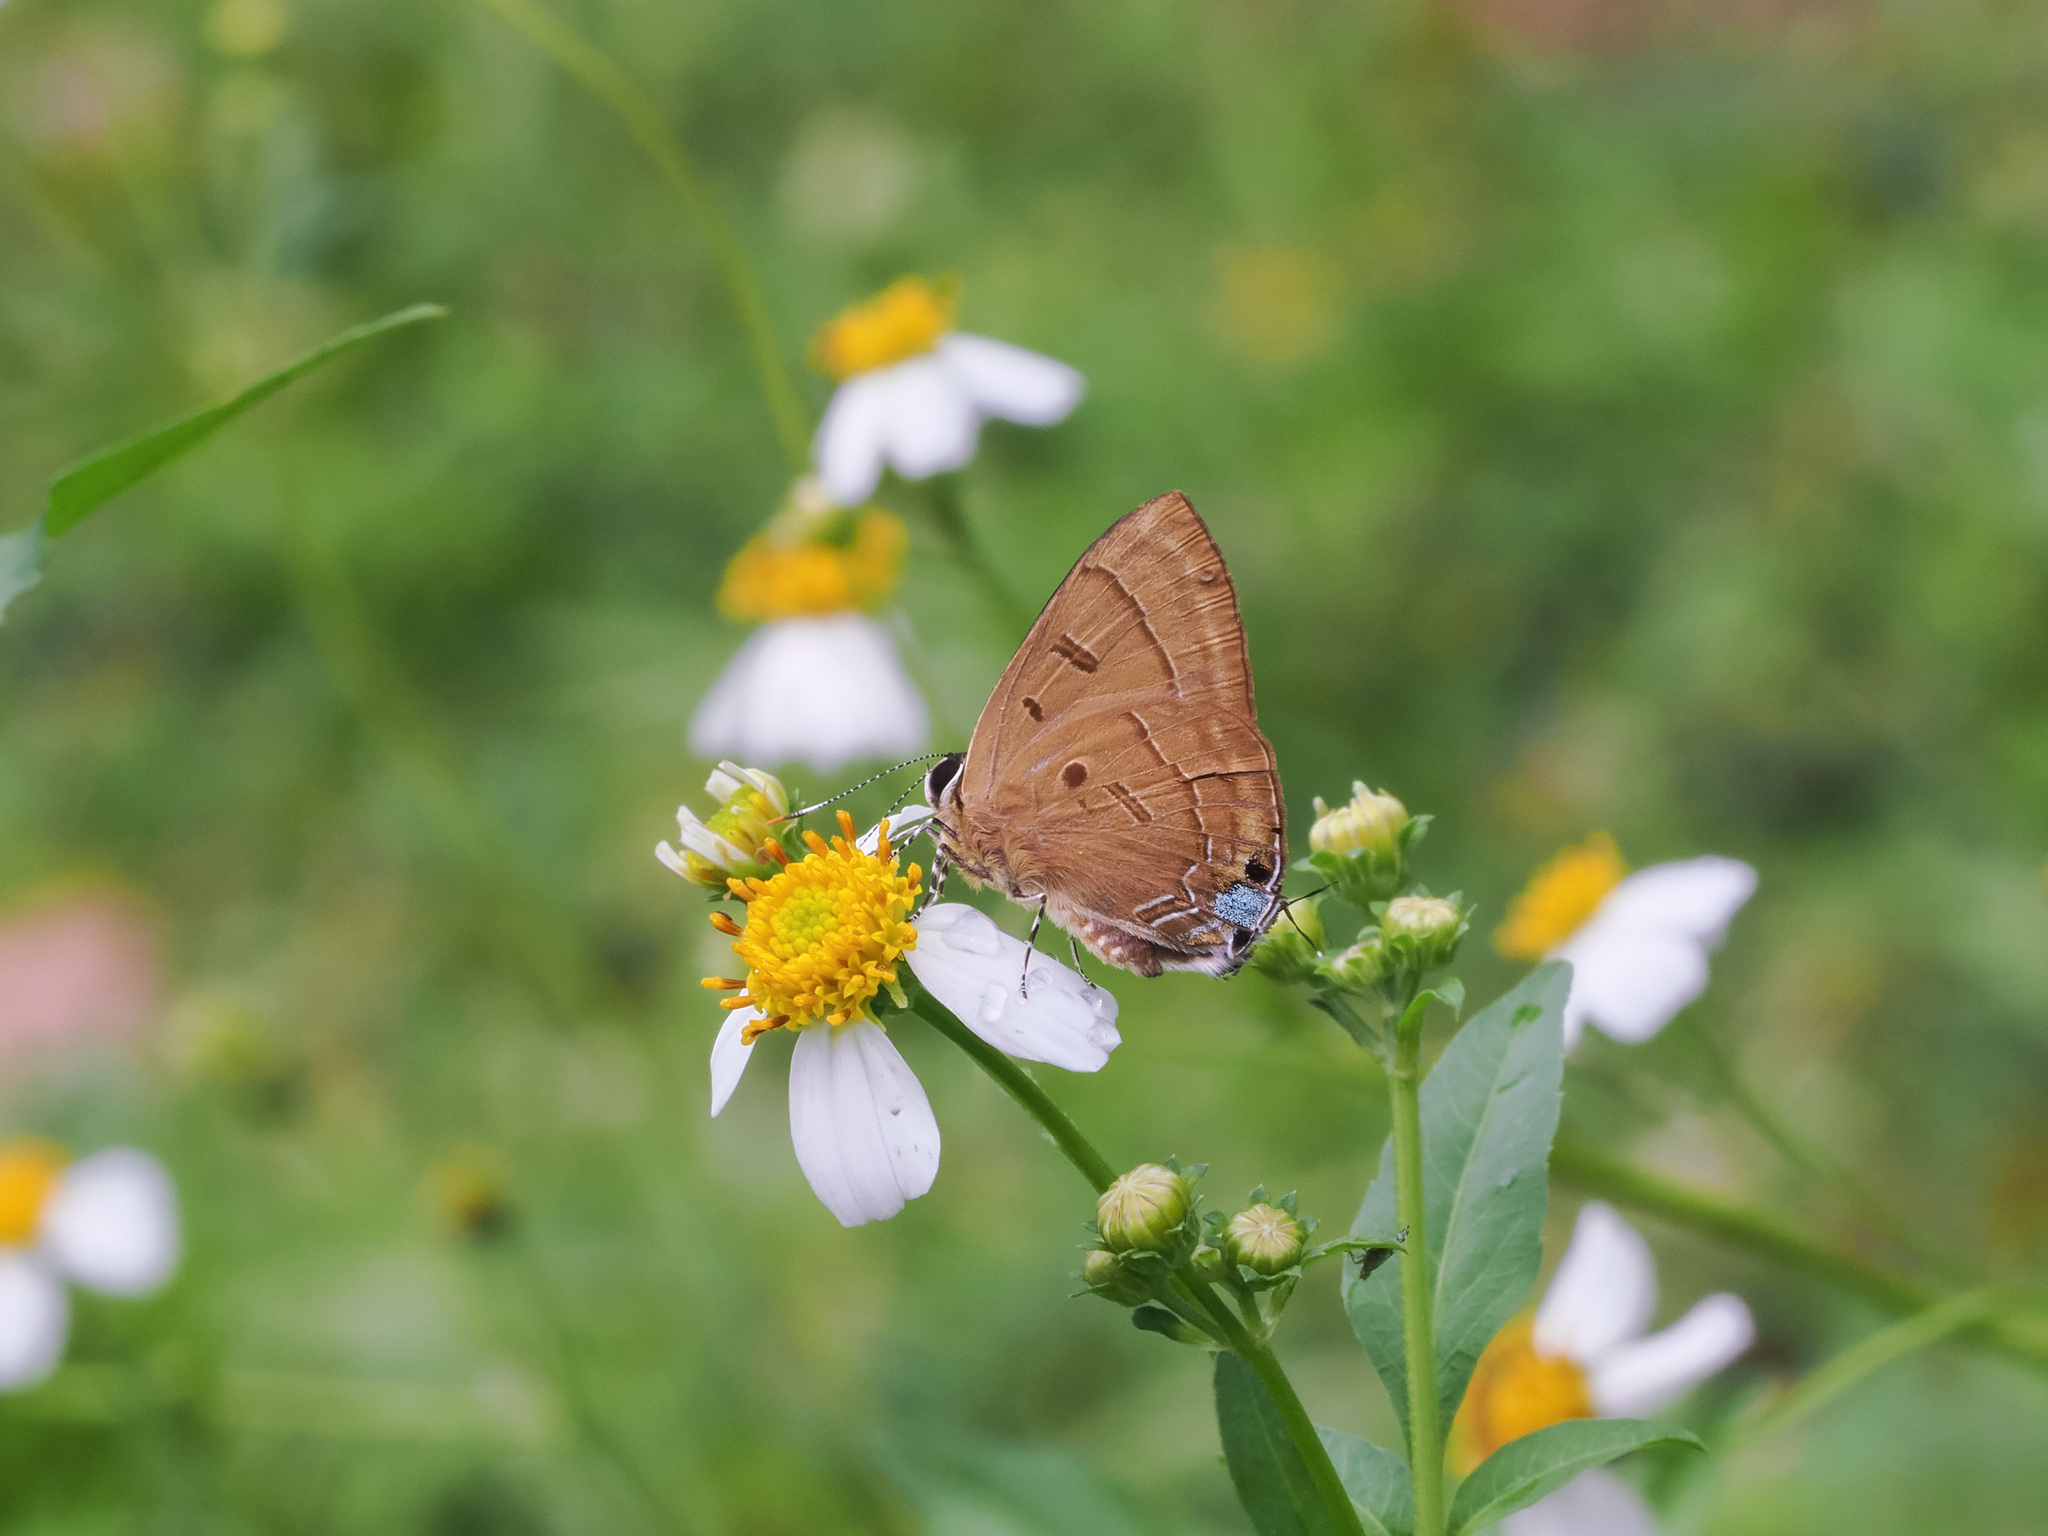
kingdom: Animalia
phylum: Arthropoda
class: Insecta
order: Lepidoptera
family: Lycaenidae
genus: Rapala
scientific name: Rapala pheretima
